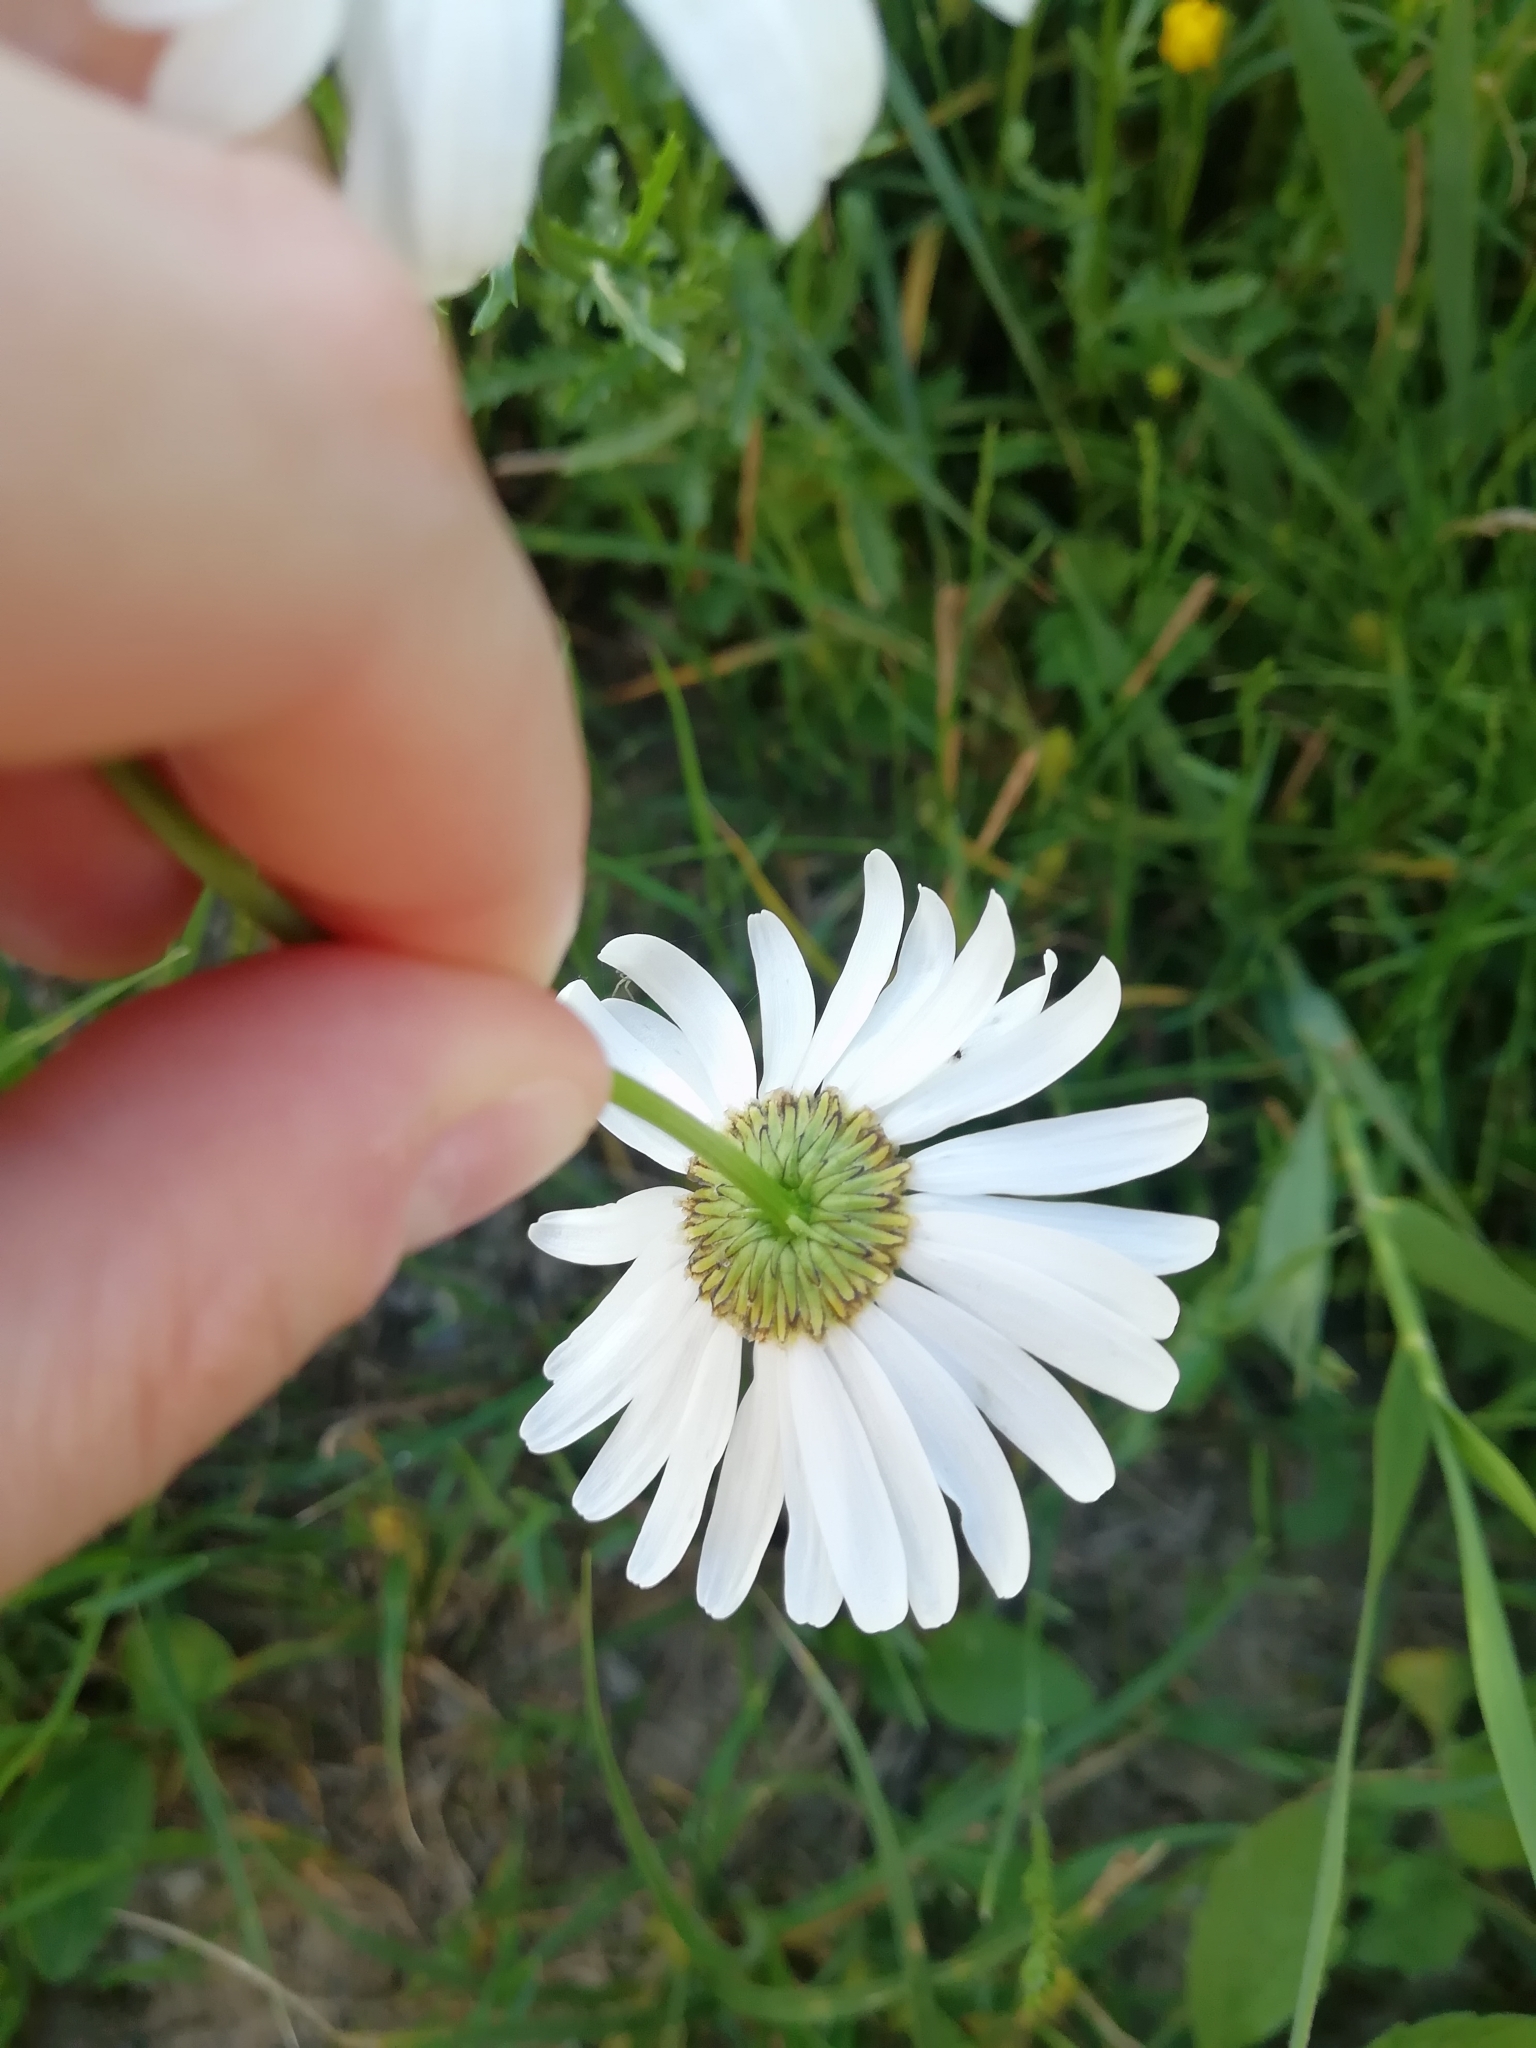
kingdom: Plantae
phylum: Tracheophyta
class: Magnoliopsida
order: Asterales
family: Asteraceae
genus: Leucanthemum
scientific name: Leucanthemum vulgare
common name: Oxeye daisy
